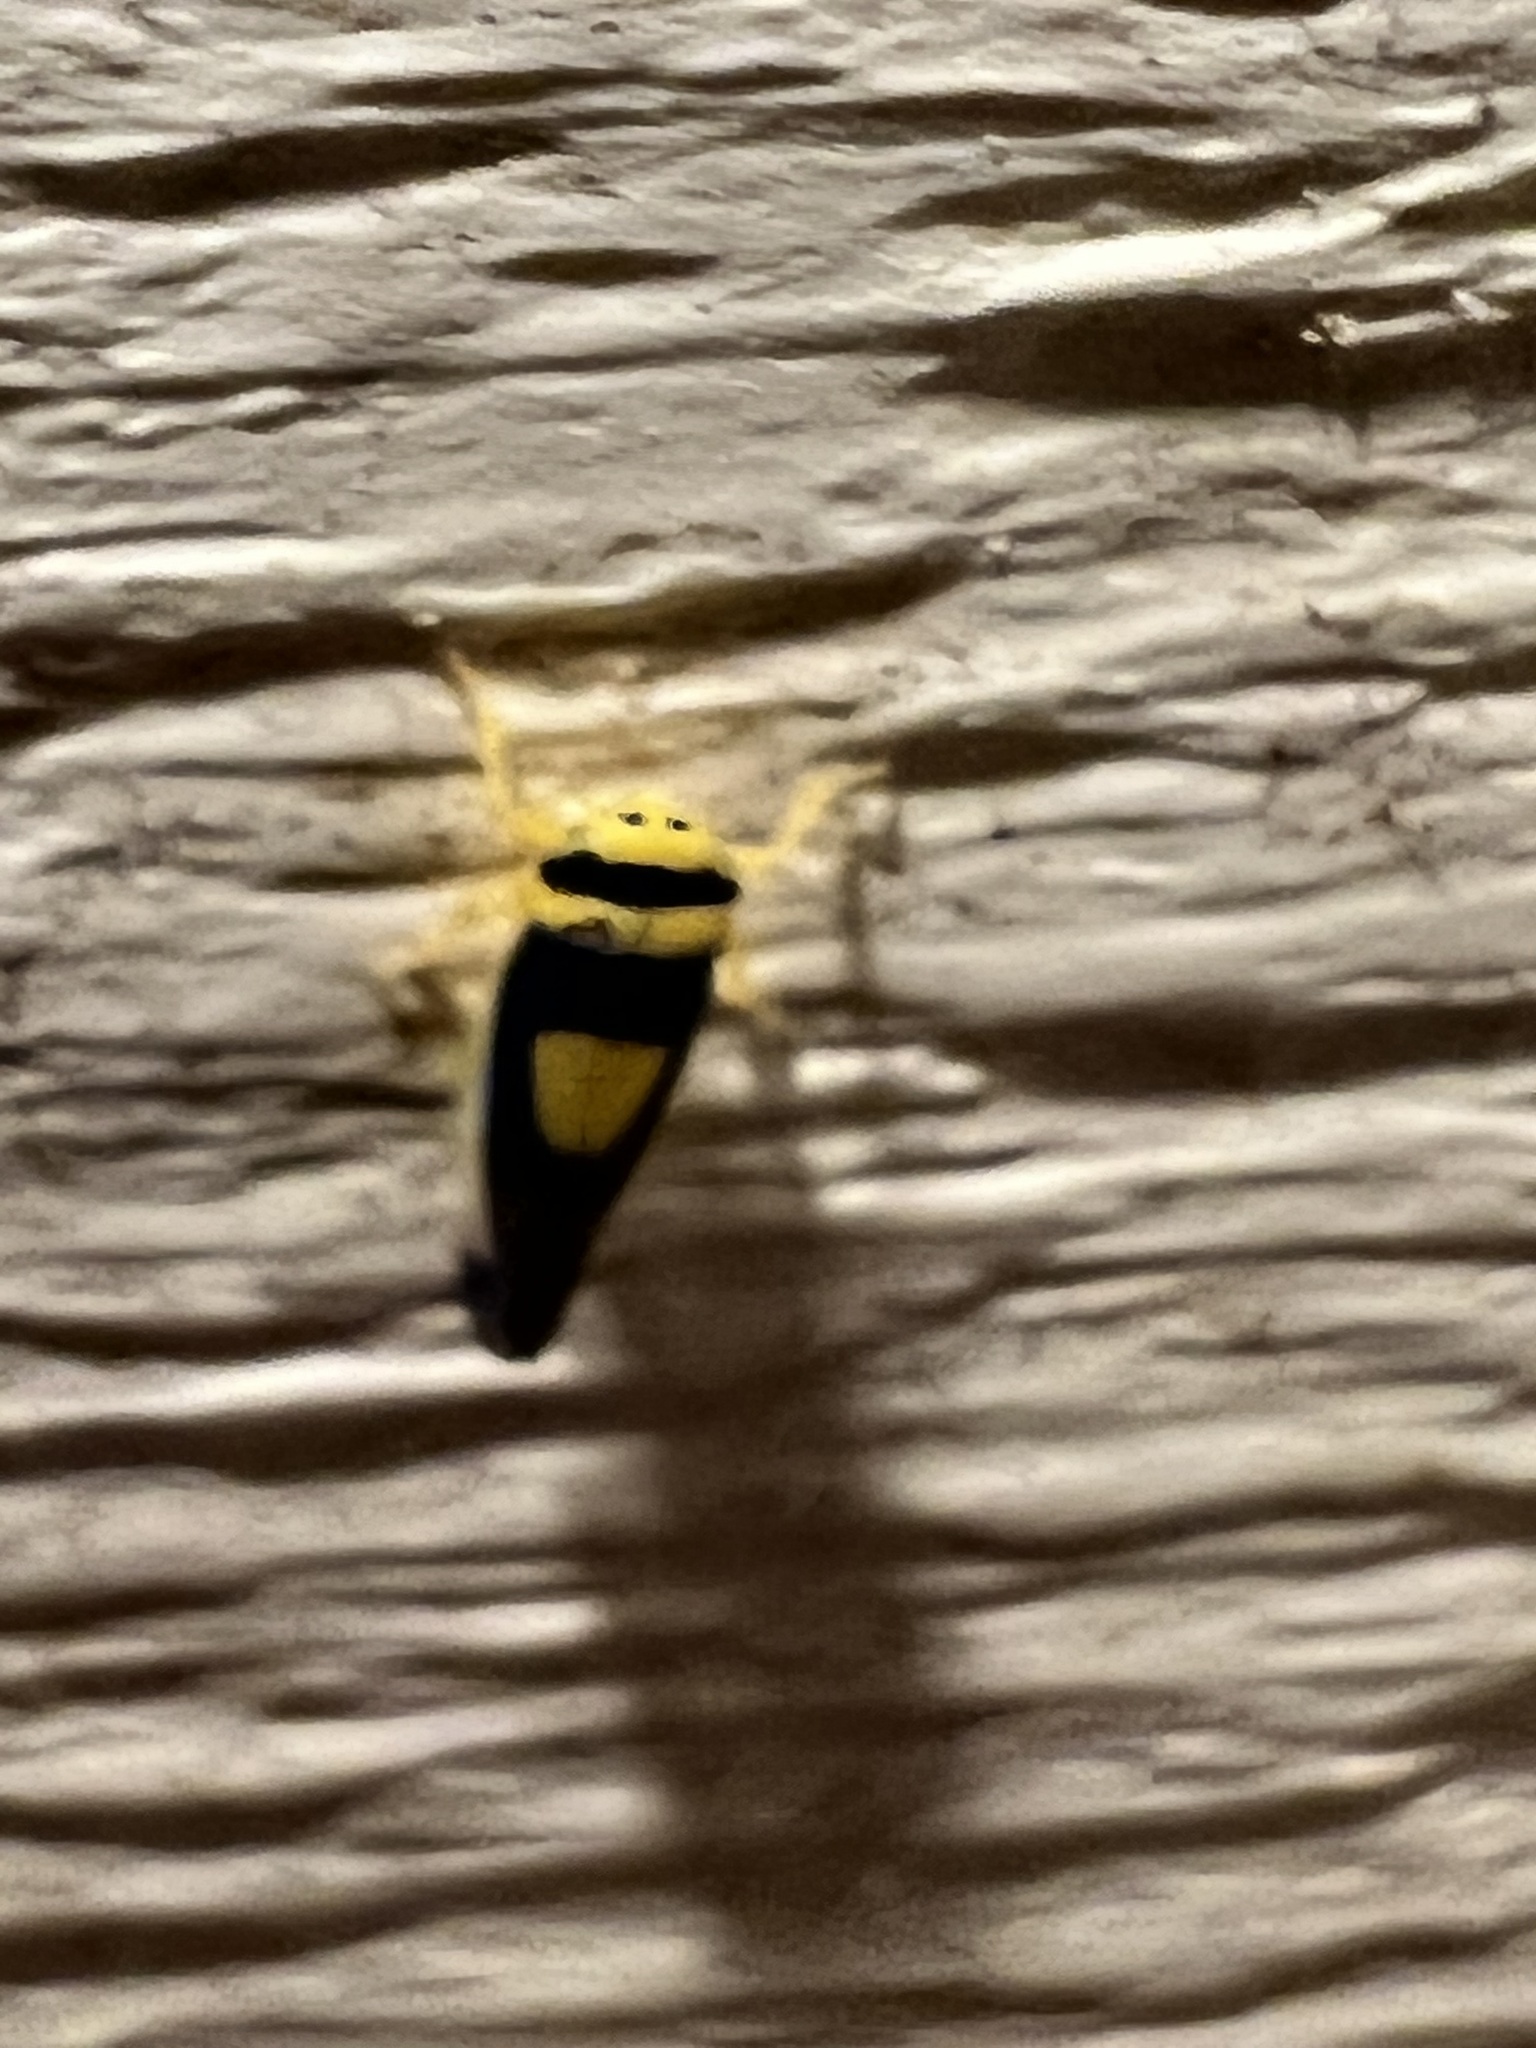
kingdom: Animalia
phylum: Arthropoda
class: Insecta
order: Hemiptera
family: Cicadellidae
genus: Colladonus
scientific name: Colladonus clitellarius
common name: The saddleback leafhopper
